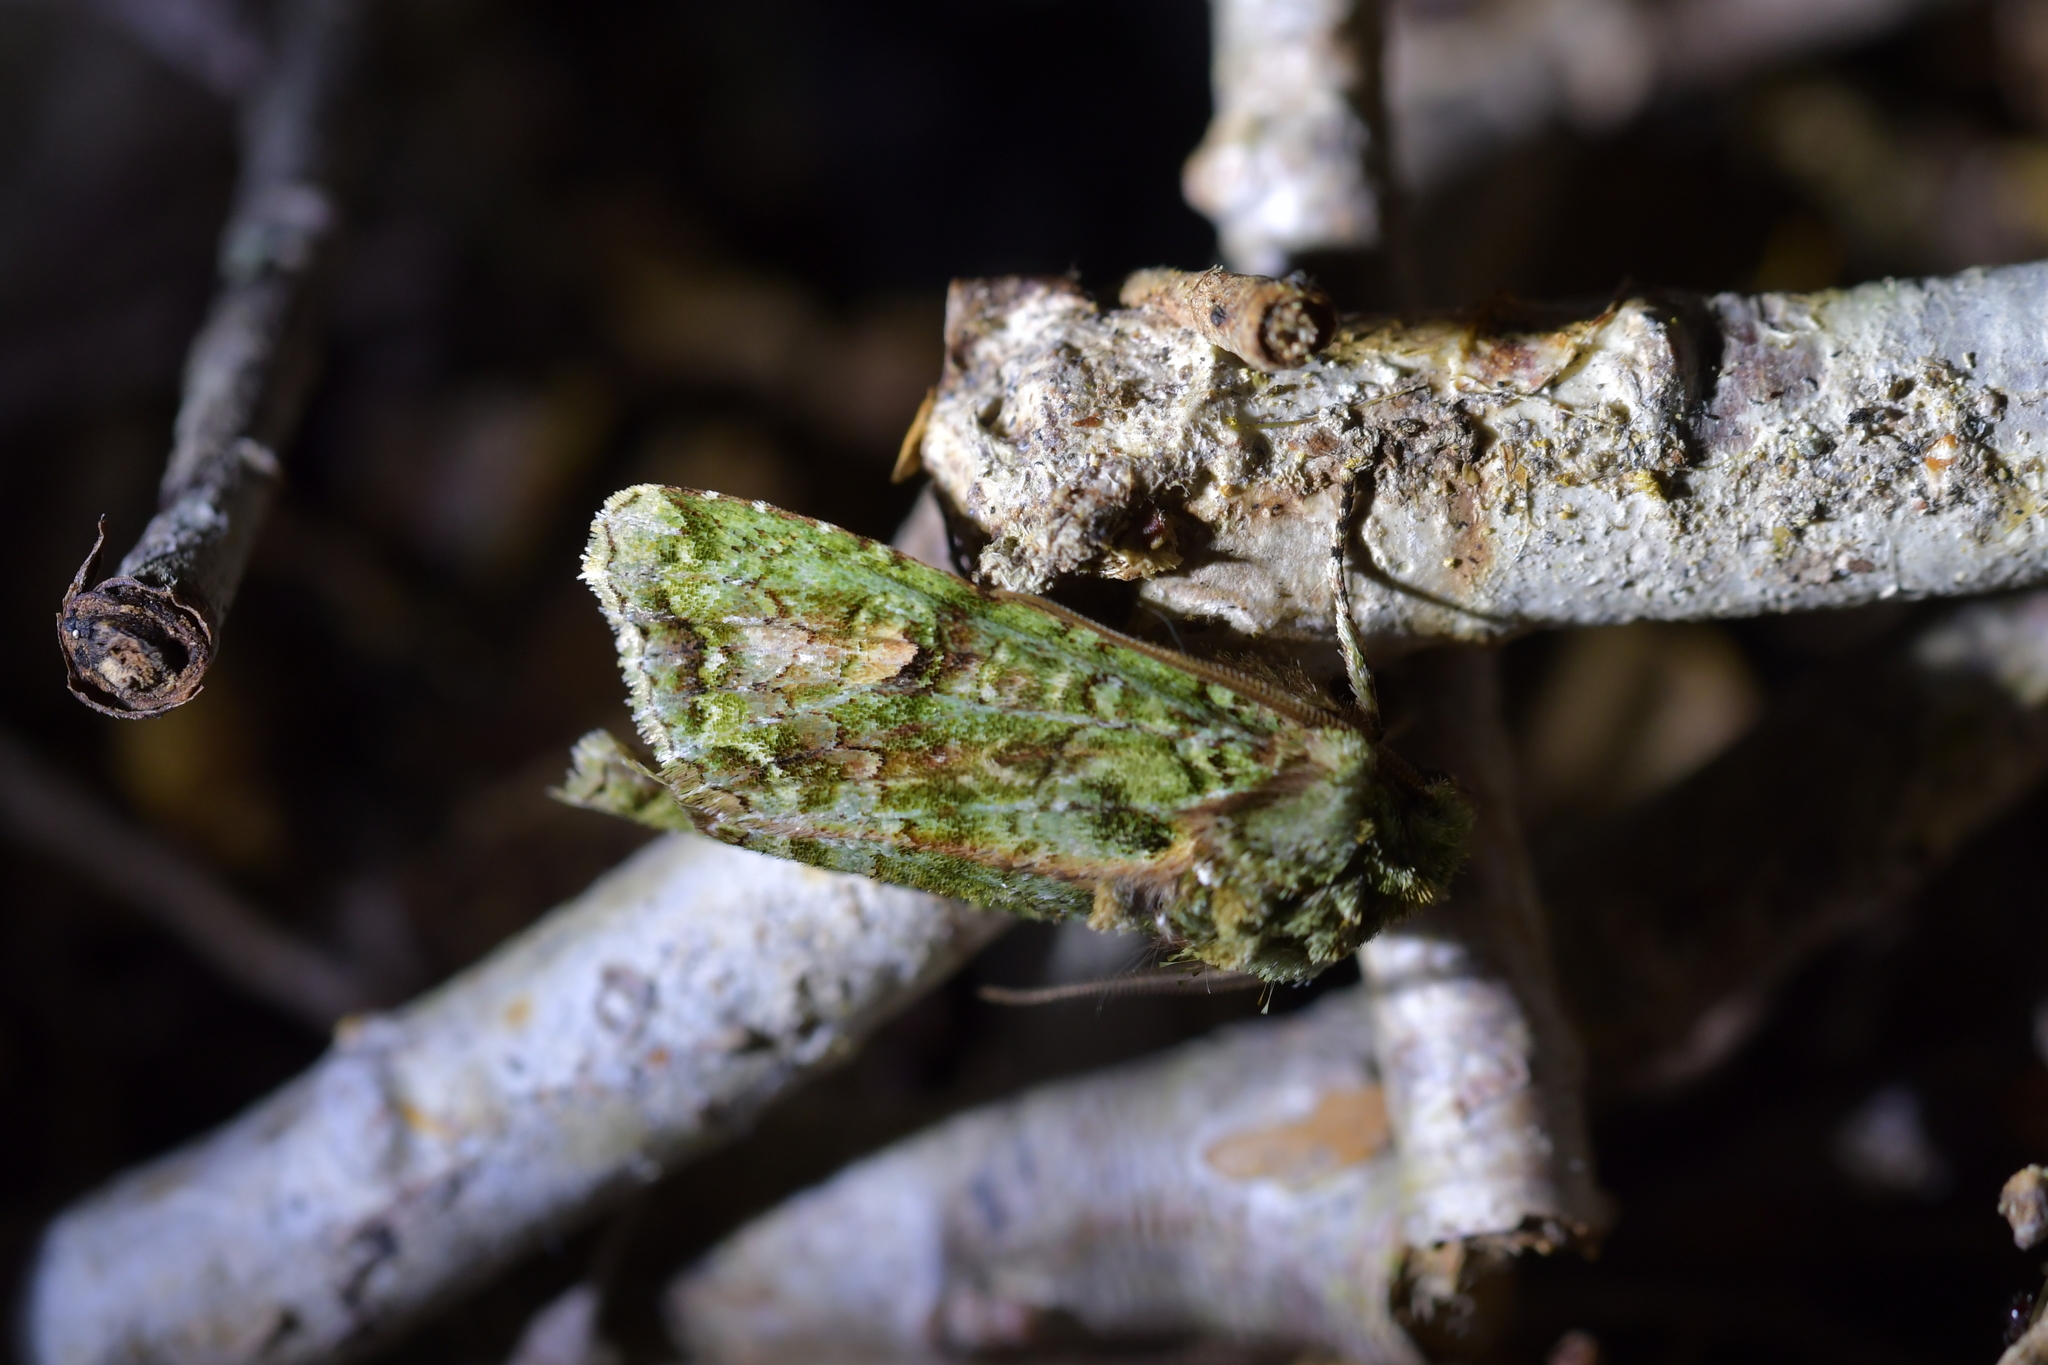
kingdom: Animalia
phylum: Arthropoda
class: Insecta
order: Lepidoptera
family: Noctuidae
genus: Ichneutica
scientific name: Ichneutica
